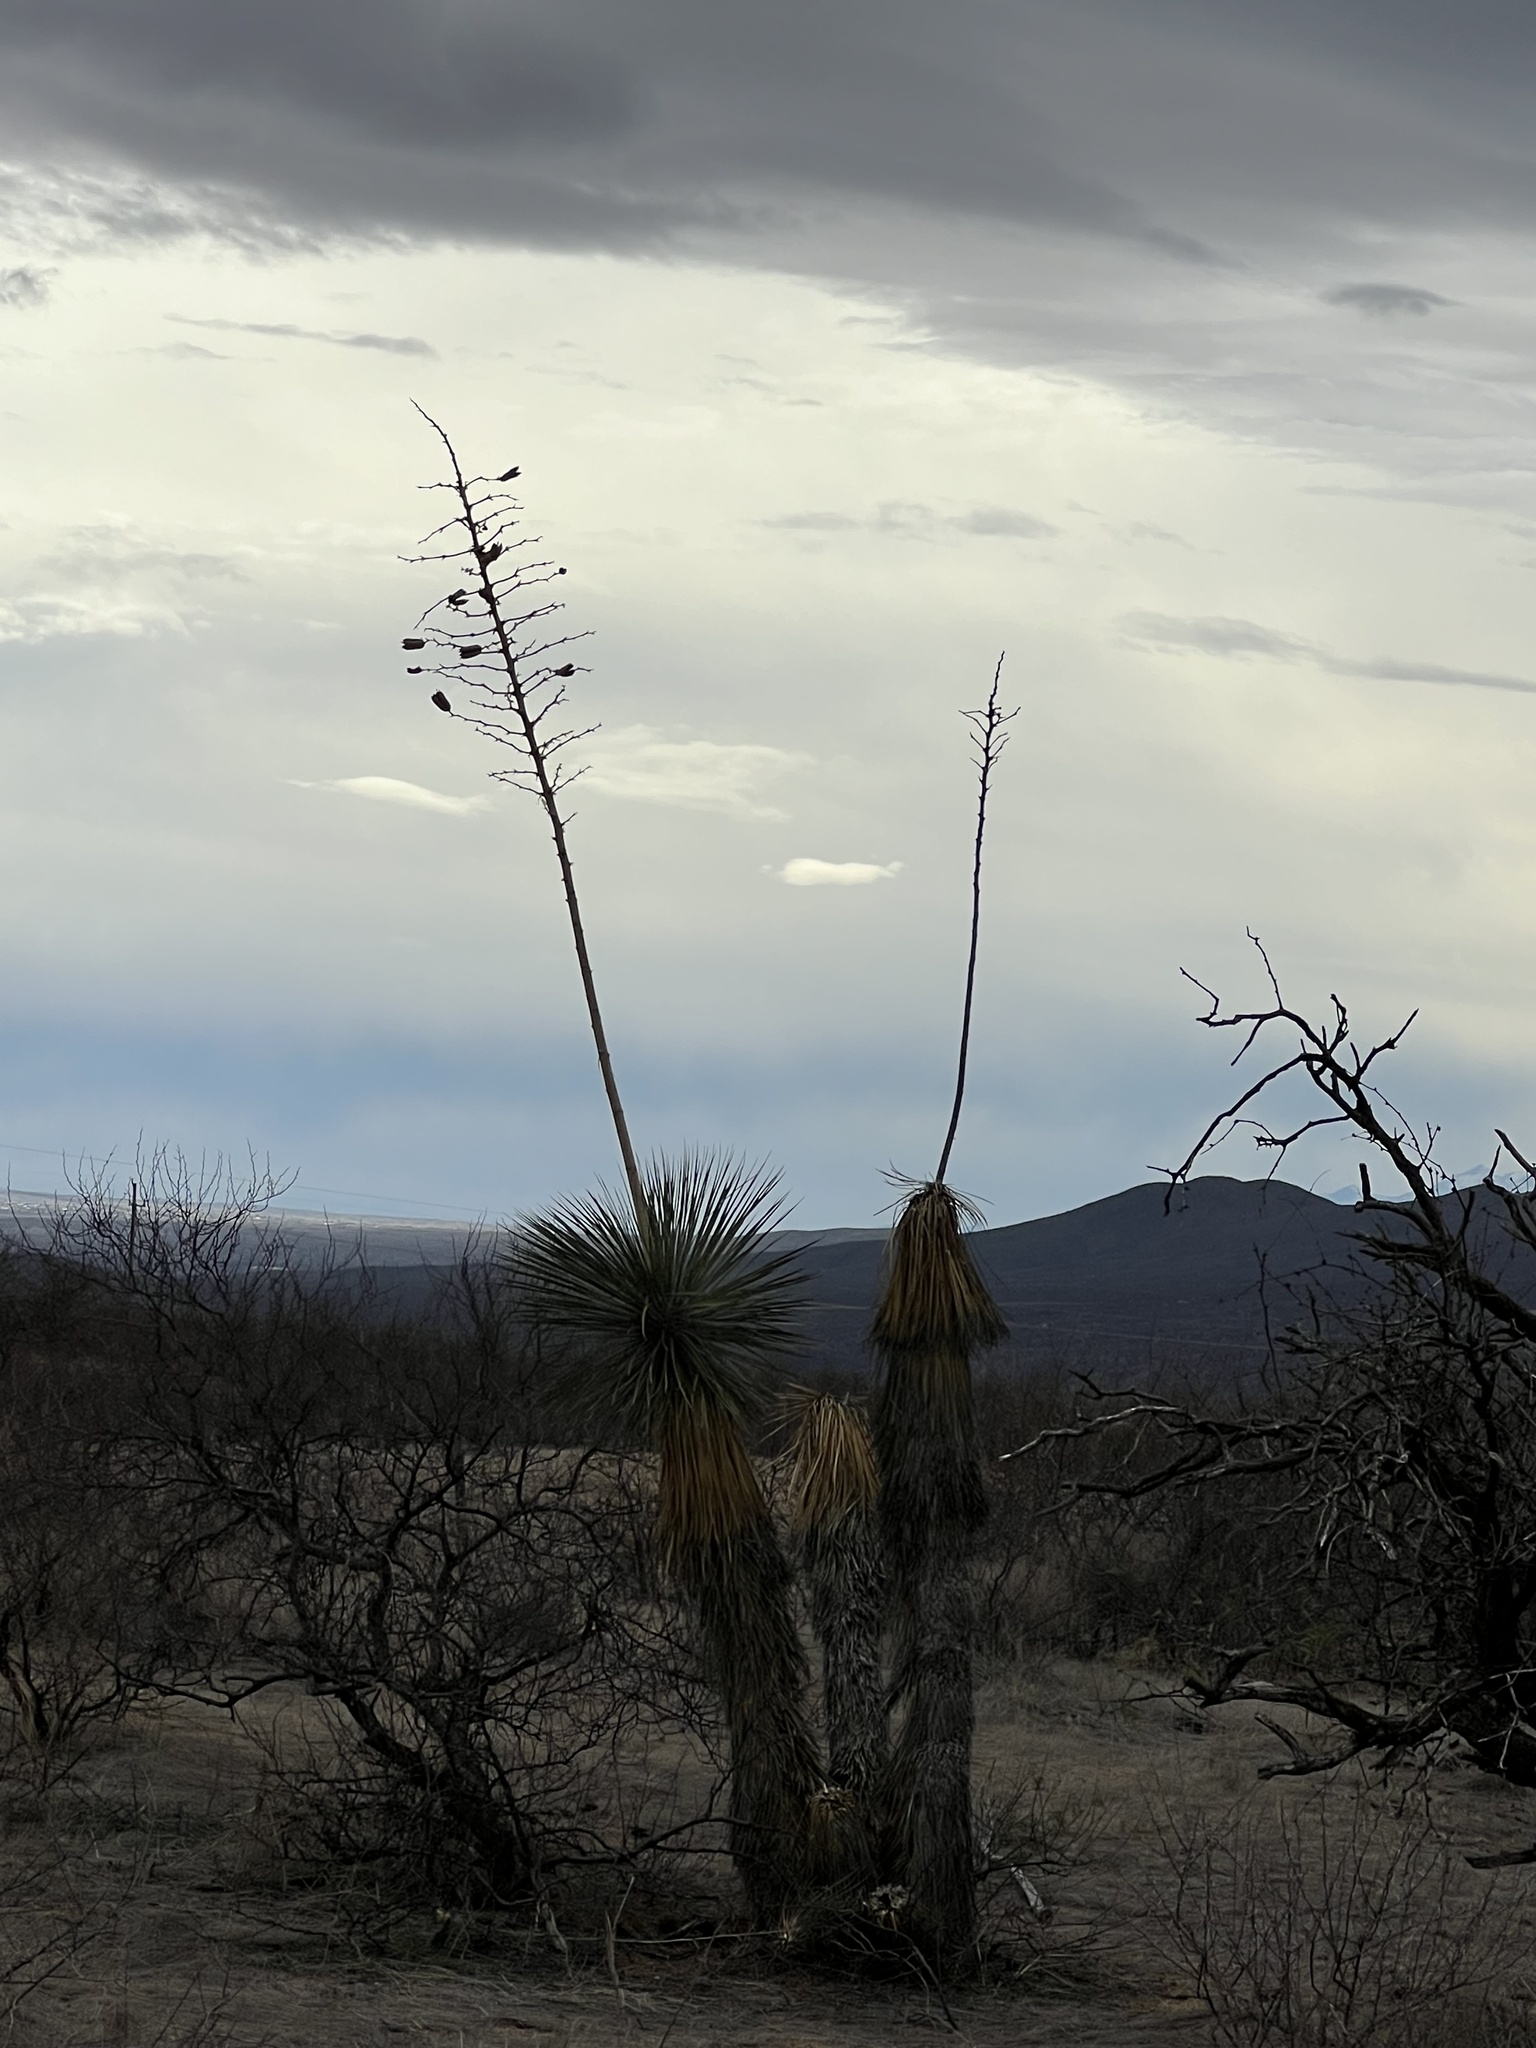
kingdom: Plantae
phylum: Tracheophyta
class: Liliopsida
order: Asparagales
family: Asparagaceae
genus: Yucca
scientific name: Yucca elata
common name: Palmella
